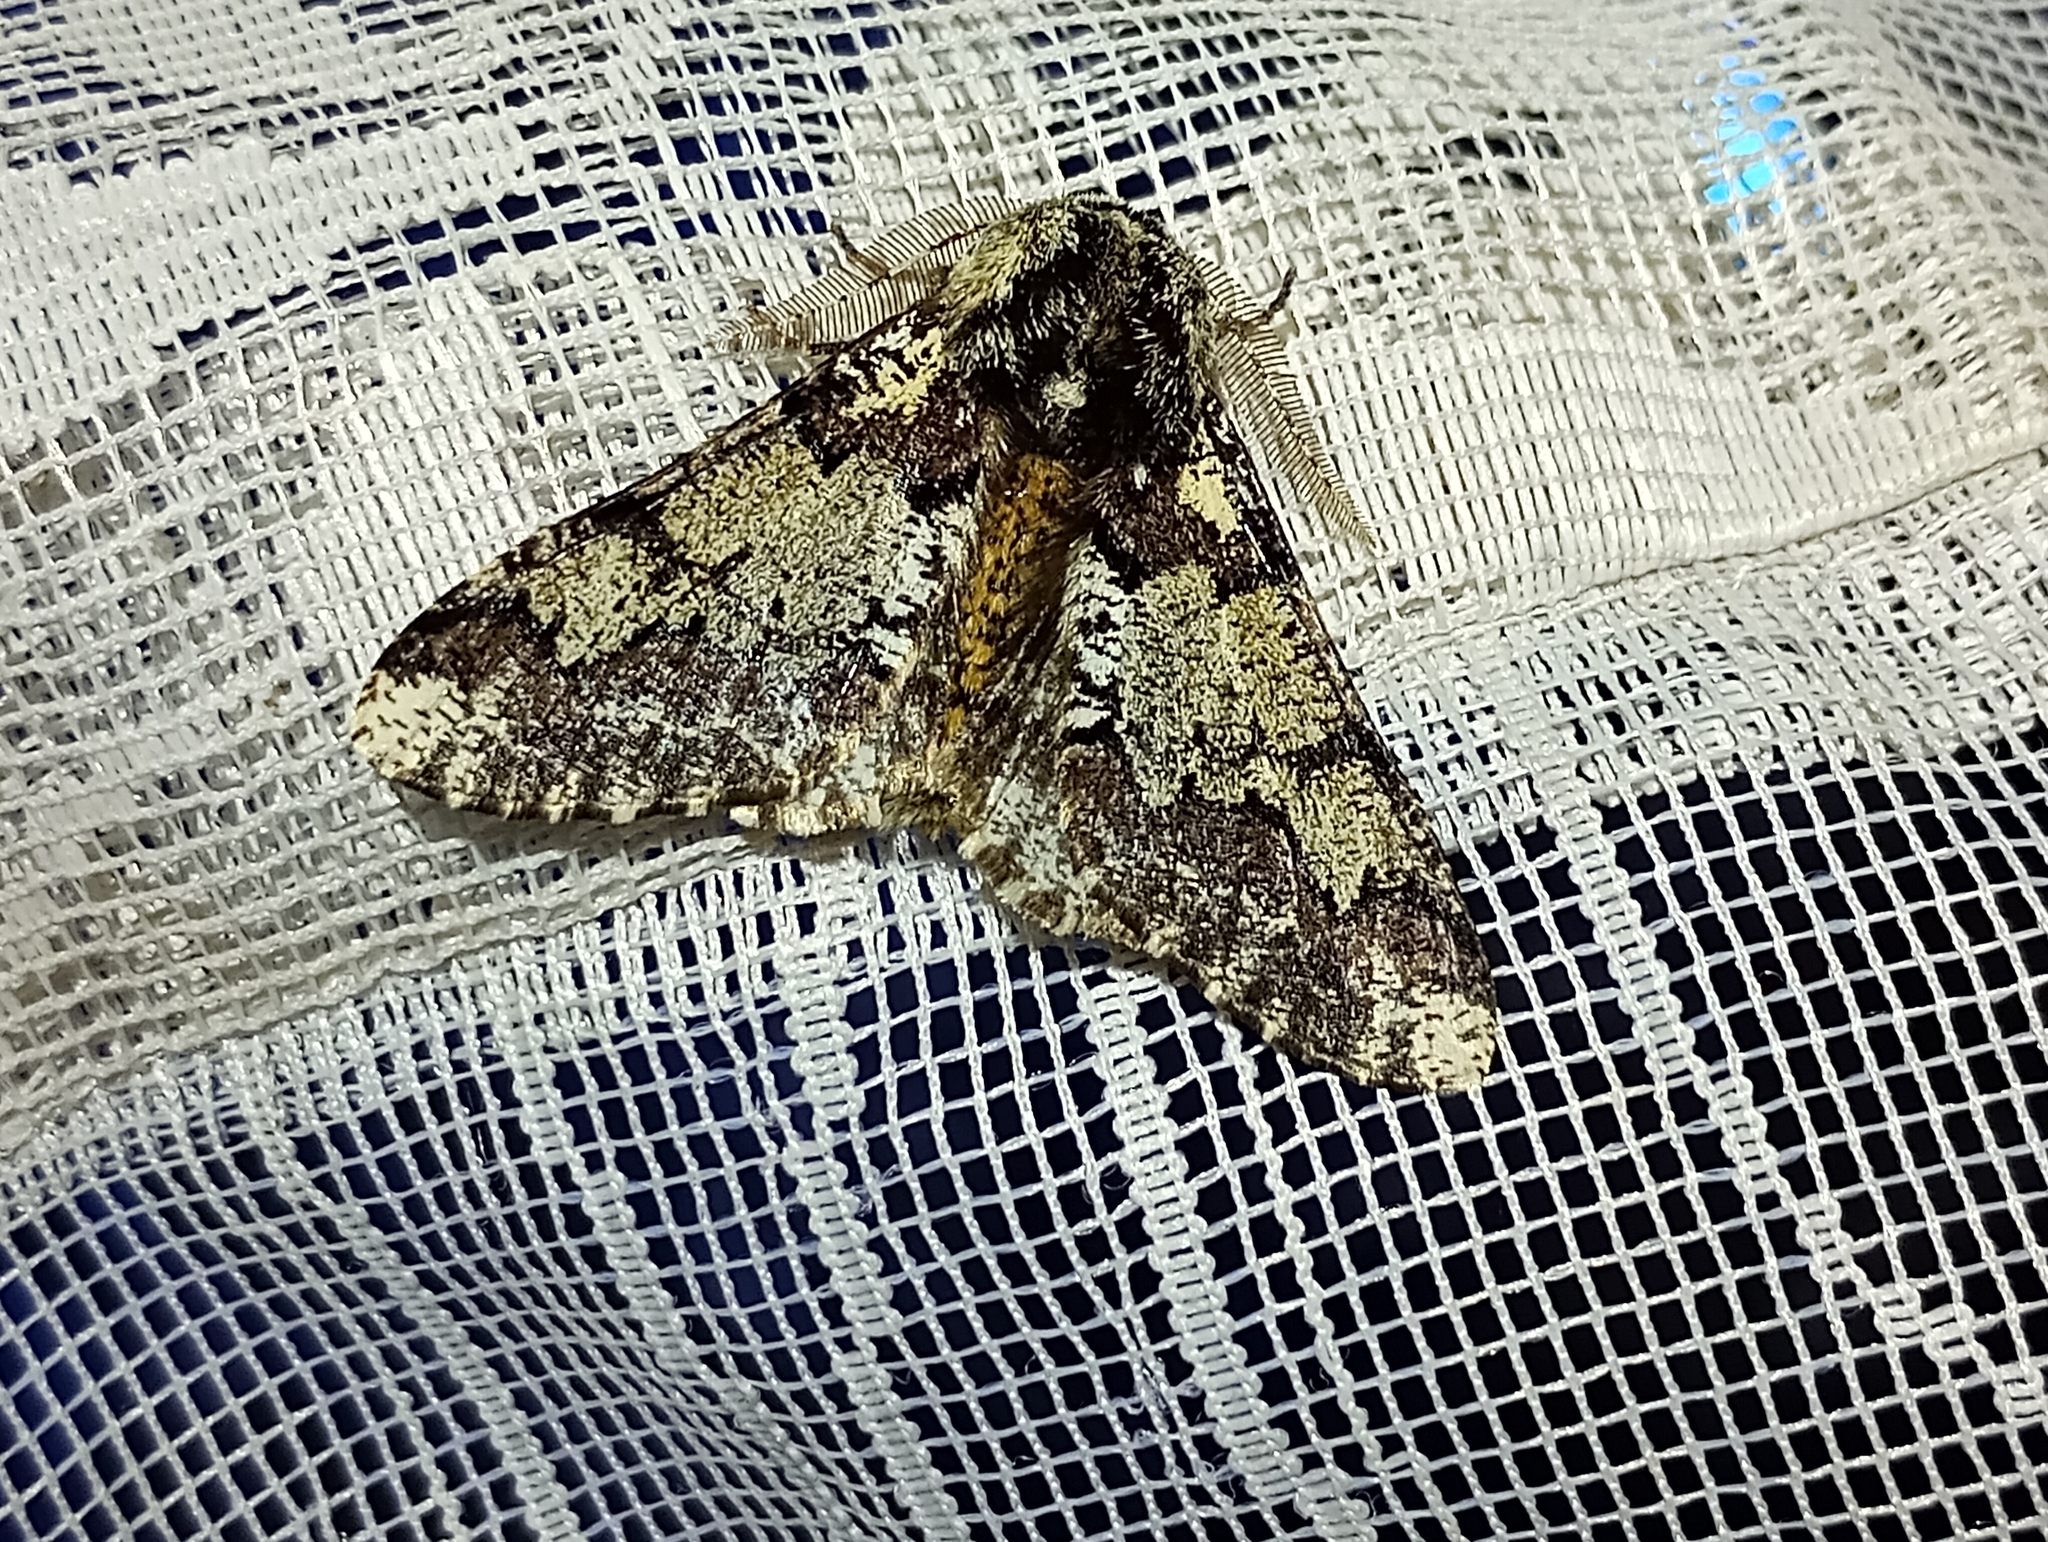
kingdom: Animalia
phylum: Arthropoda
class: Insecta
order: Lepidoptera
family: Geometridae
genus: Biston
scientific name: Biston strataria
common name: Oak beauty
